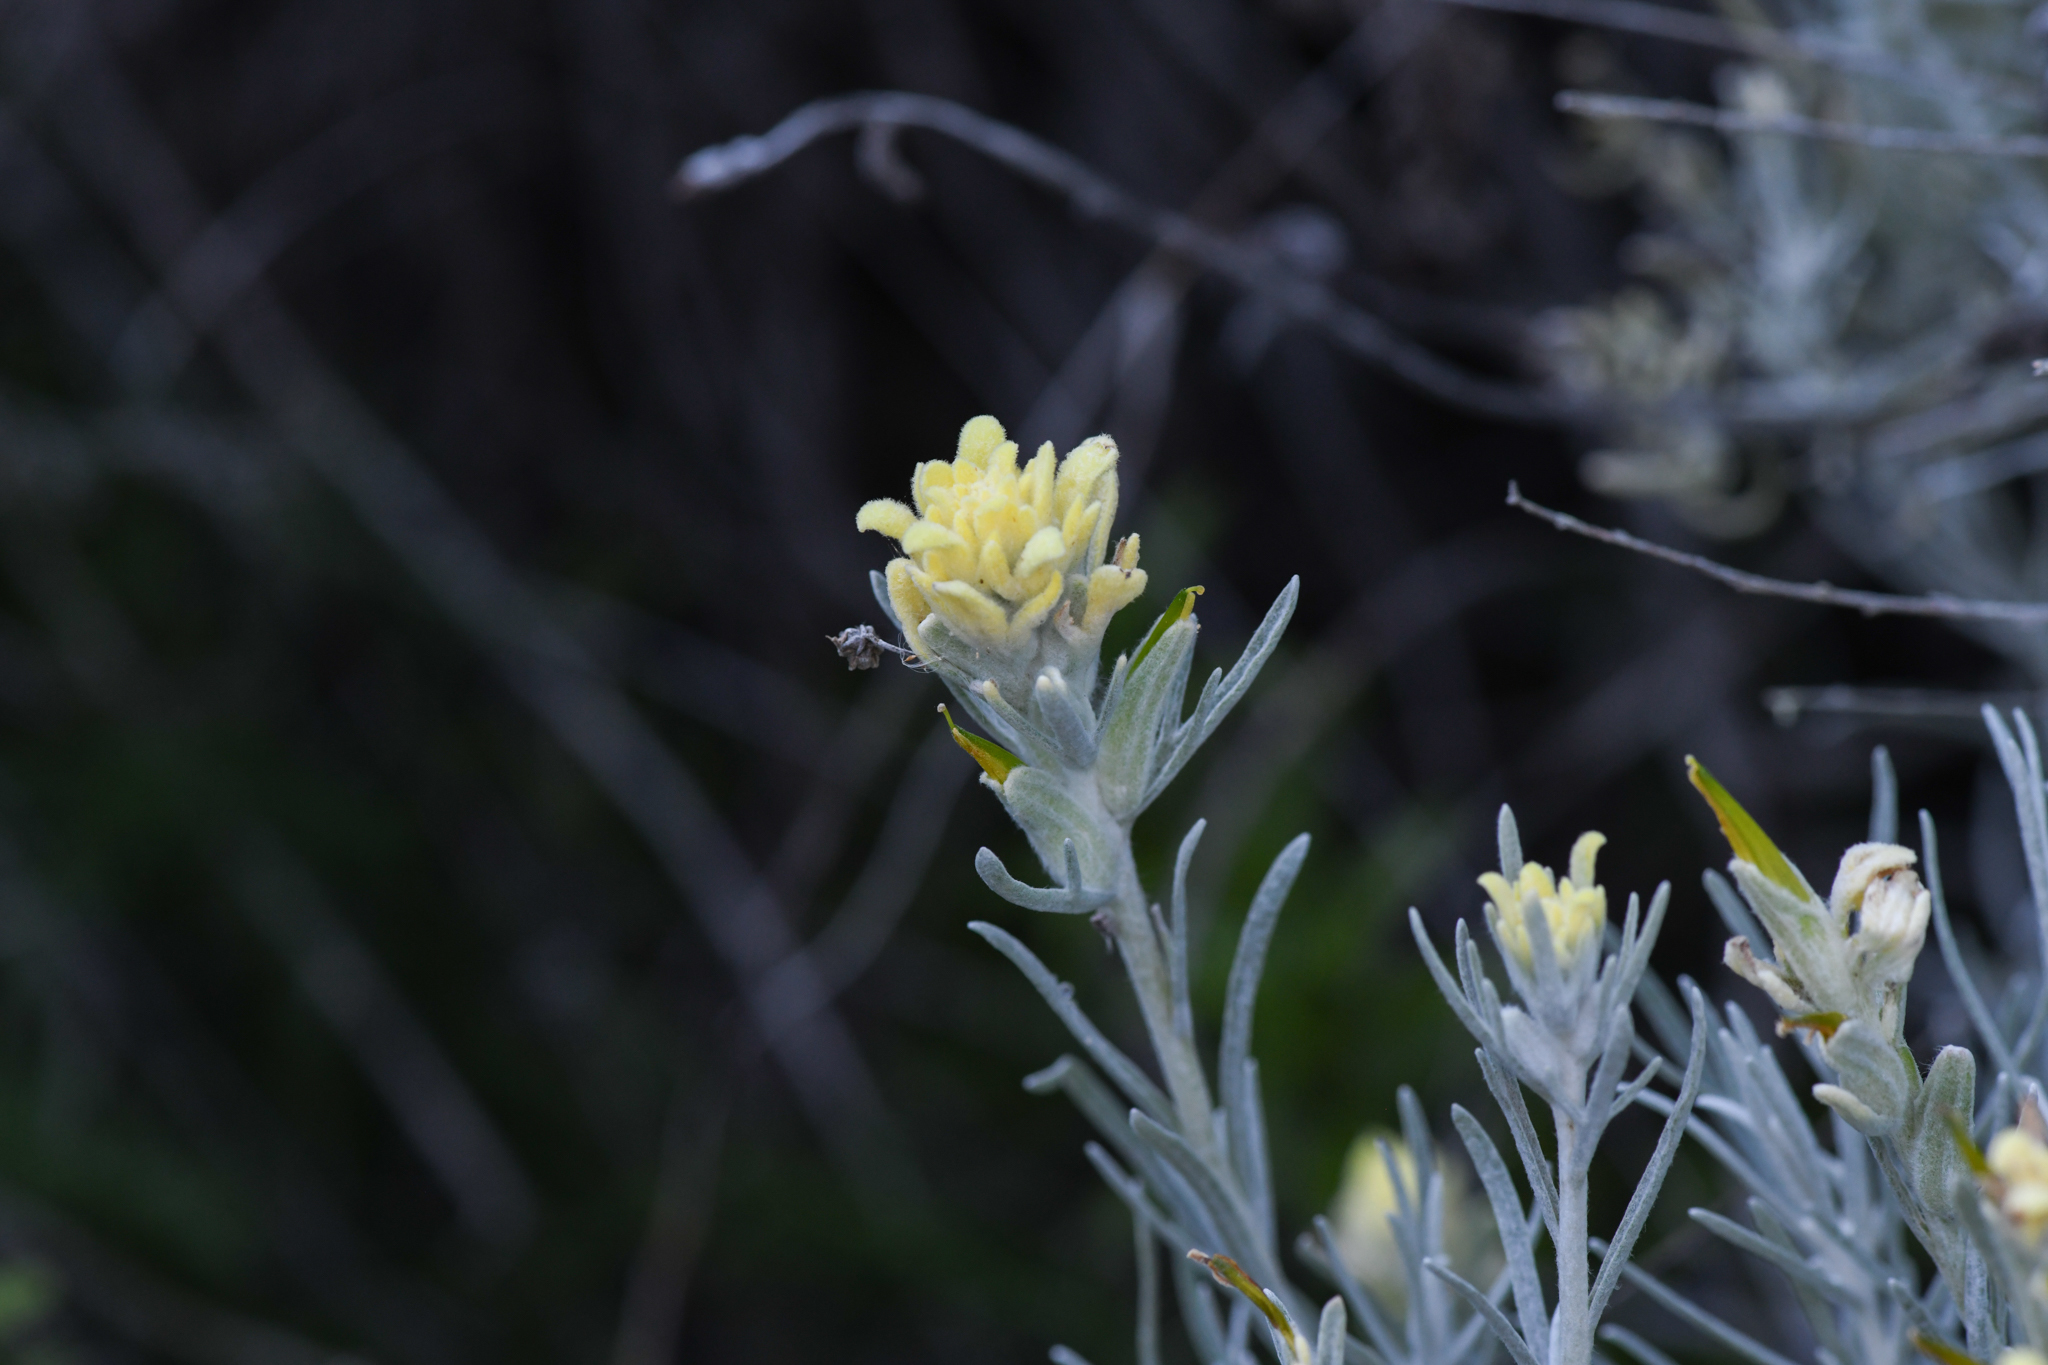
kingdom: Plantae
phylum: Tracheophyta
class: Magnoliopsida
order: Lamiales
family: Orobanchaceae
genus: Castilleja
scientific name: Castilleja hololeuca
